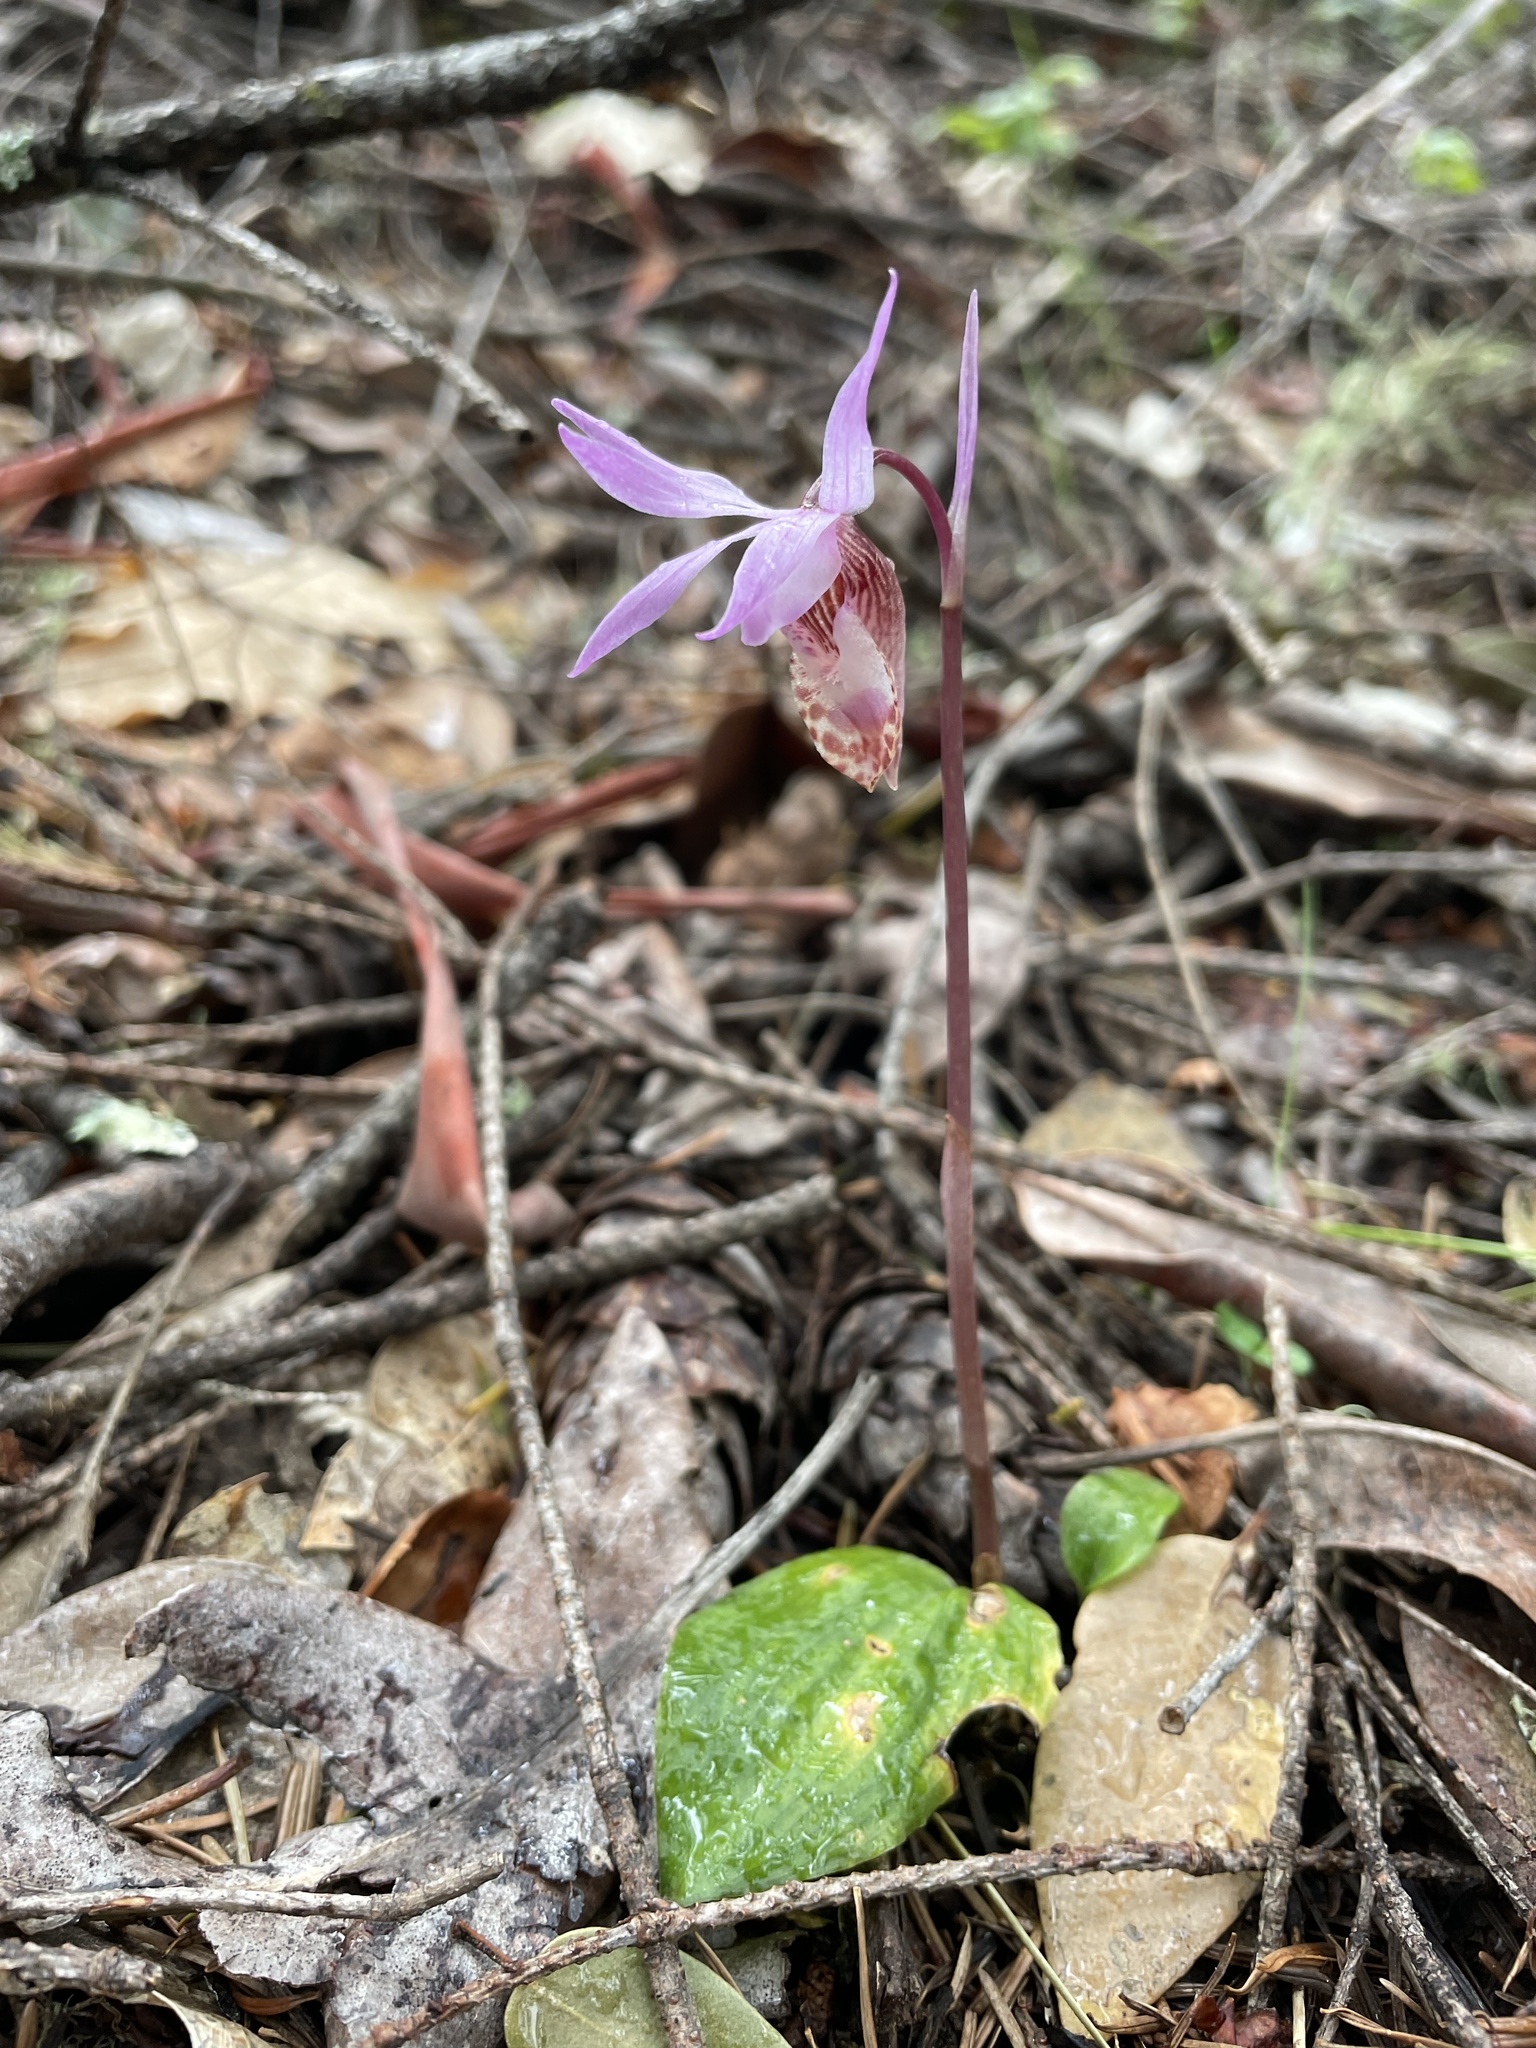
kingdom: Plantae
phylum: Tracheophyta
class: Liliopsida
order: Asparagales
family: Orchidaceae
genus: Calypso
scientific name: Calypso bulbosa
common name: Calypso
